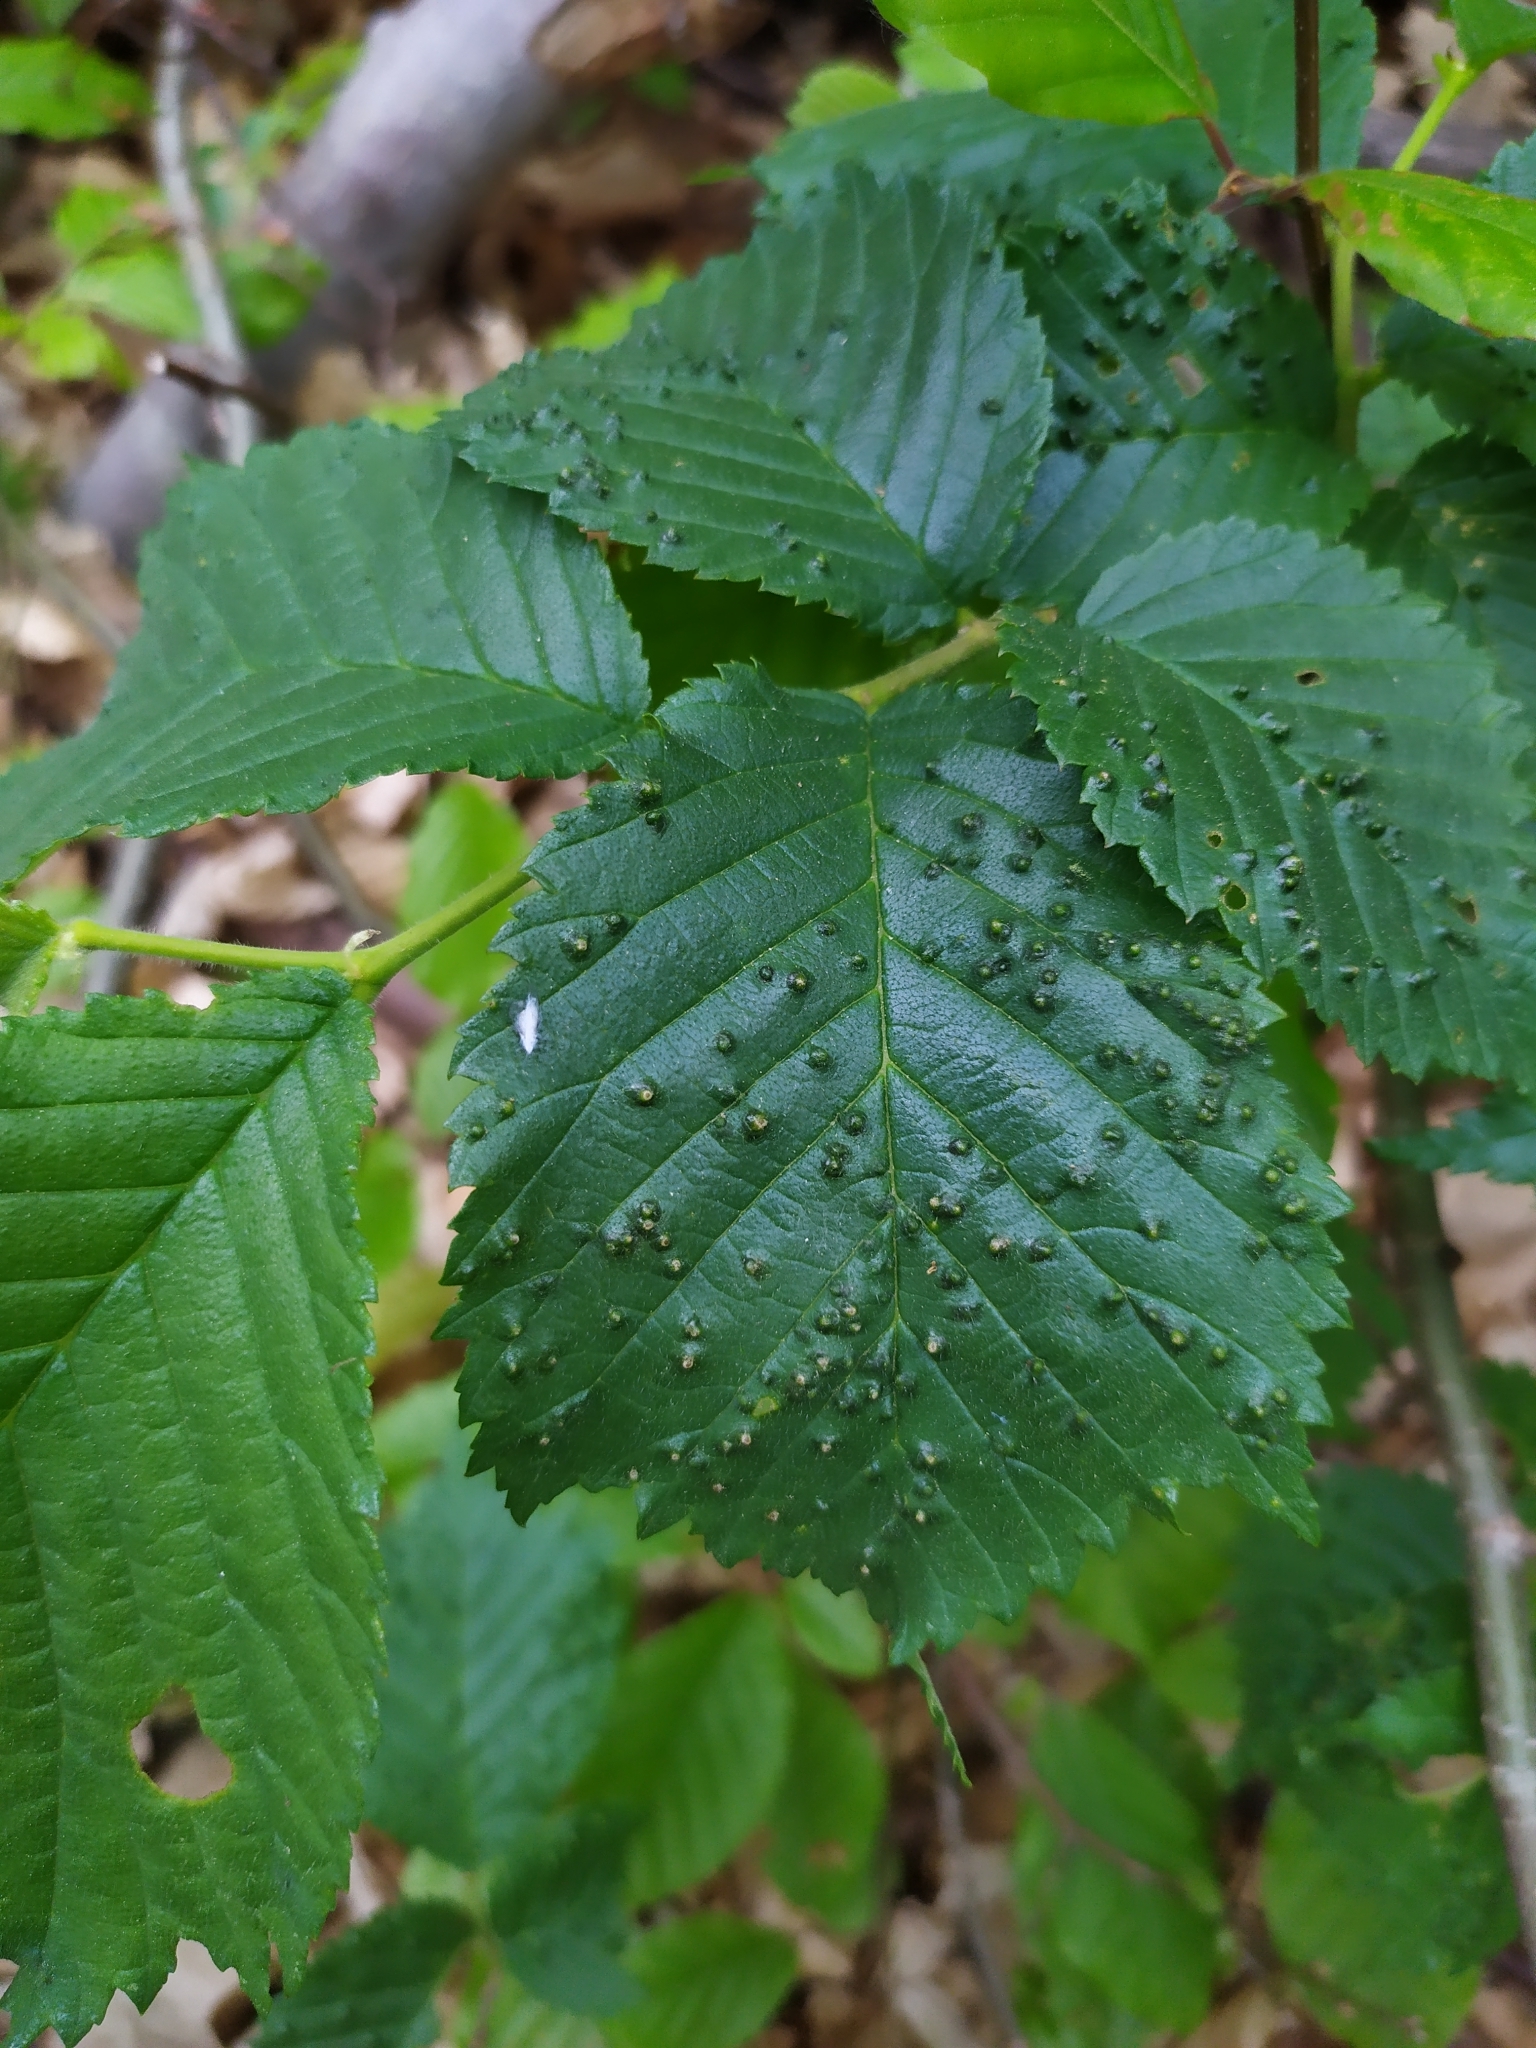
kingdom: Animalia
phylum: Arthropoda
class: Arachnida
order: Trombidiformes
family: Eriophyidae
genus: Aceria
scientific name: Aceria brevipunctata
